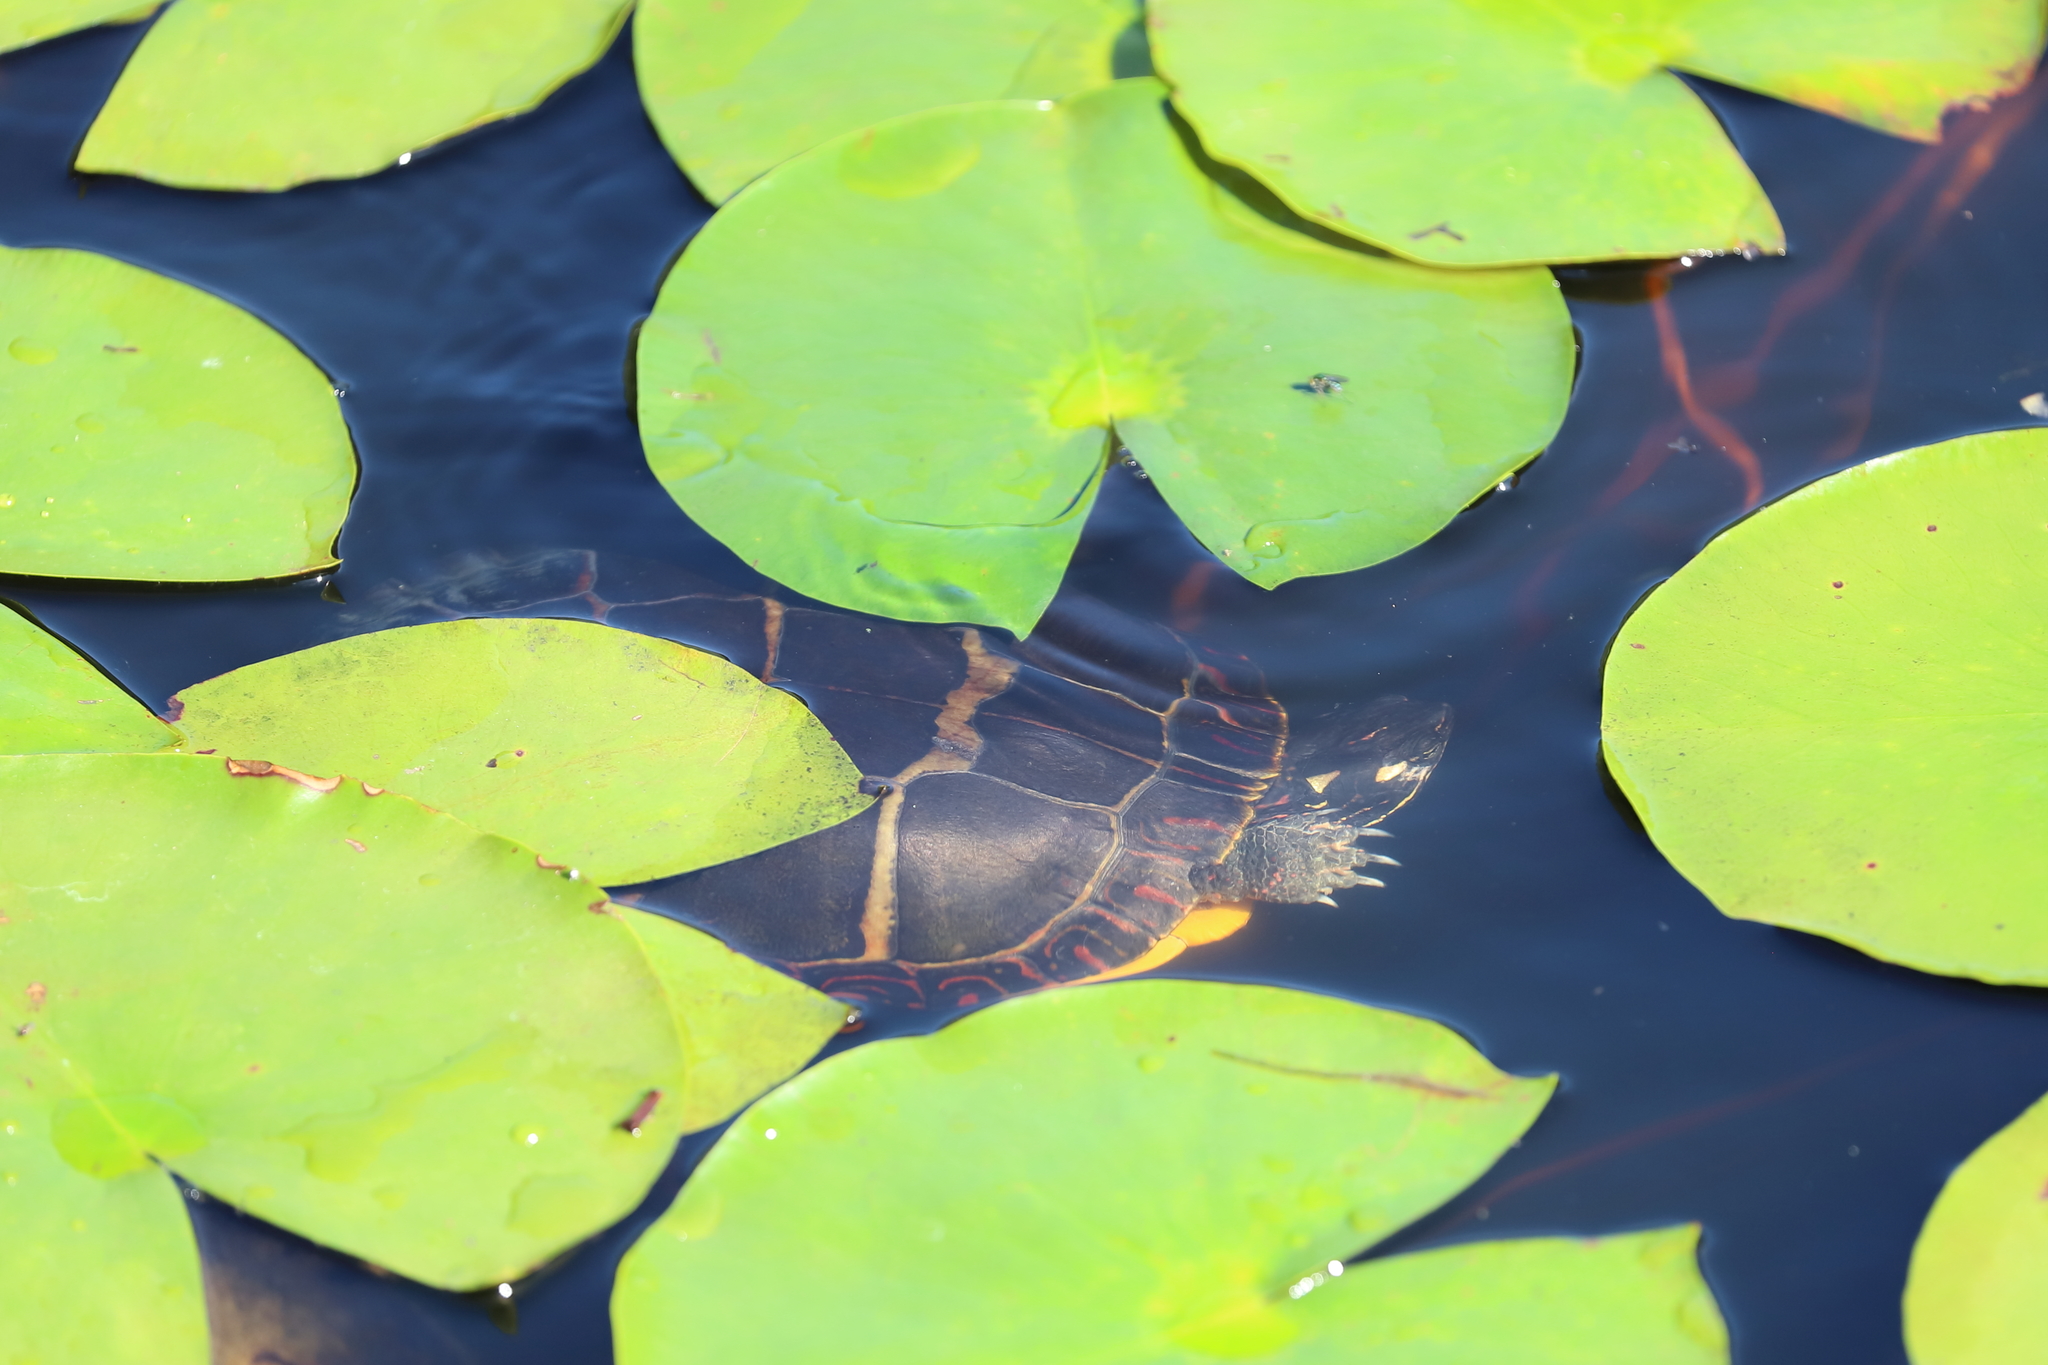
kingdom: Animalia
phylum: Chordata
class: Testudines
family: Emydidae
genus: Chrysemys
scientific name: Chrysemys picta
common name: Painted turtle
